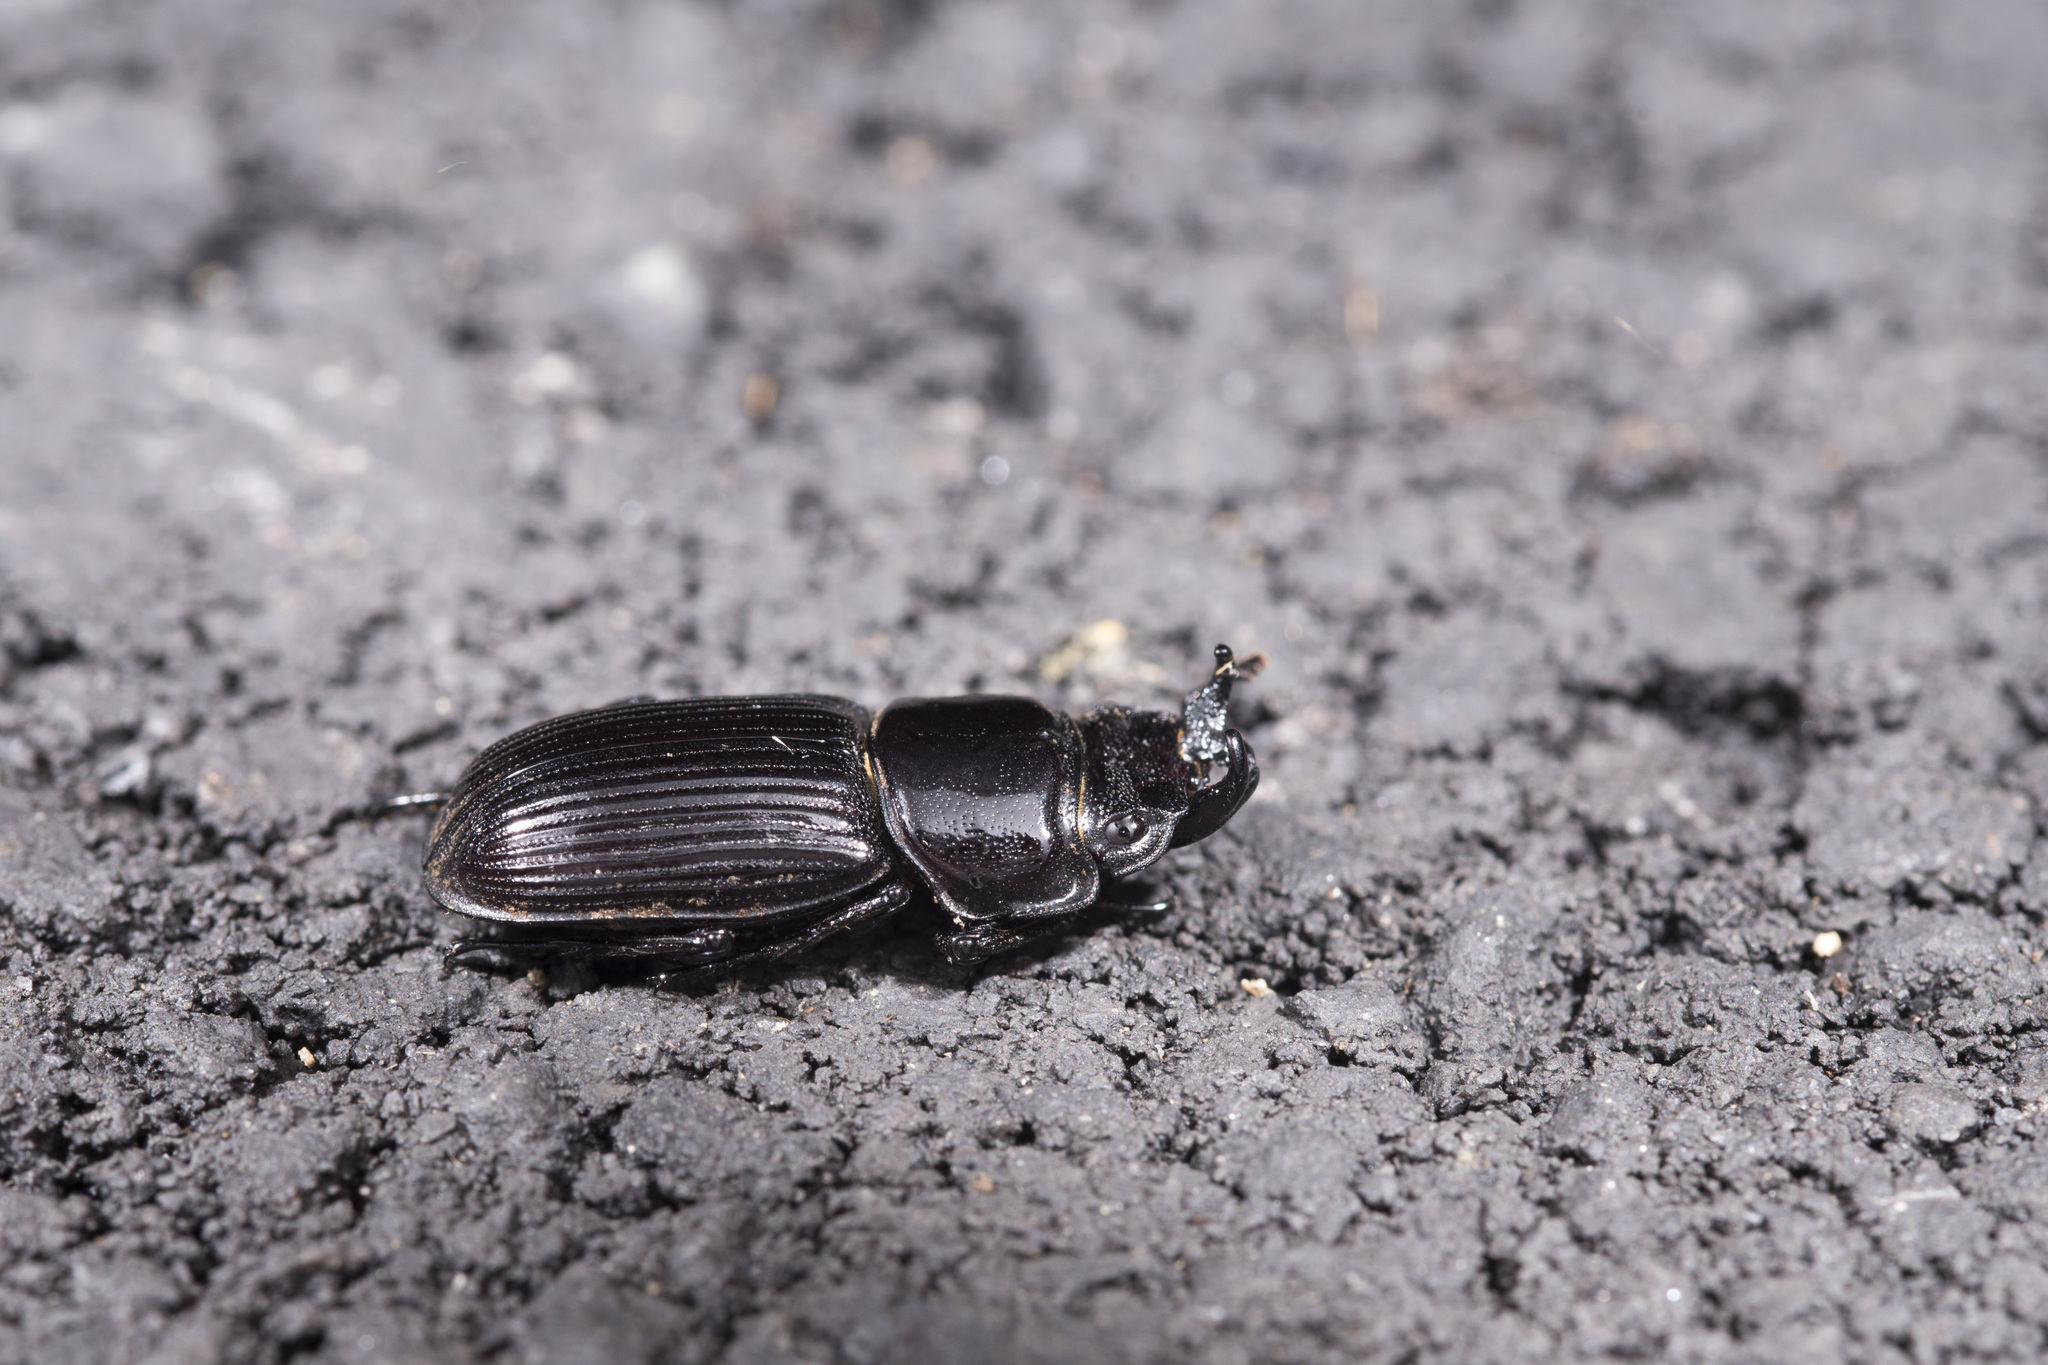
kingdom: Animalia
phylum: Arthropoda
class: Insecta
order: Coleoptera
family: Lucanidae
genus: Nigidius
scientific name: Nigidius formosanus
